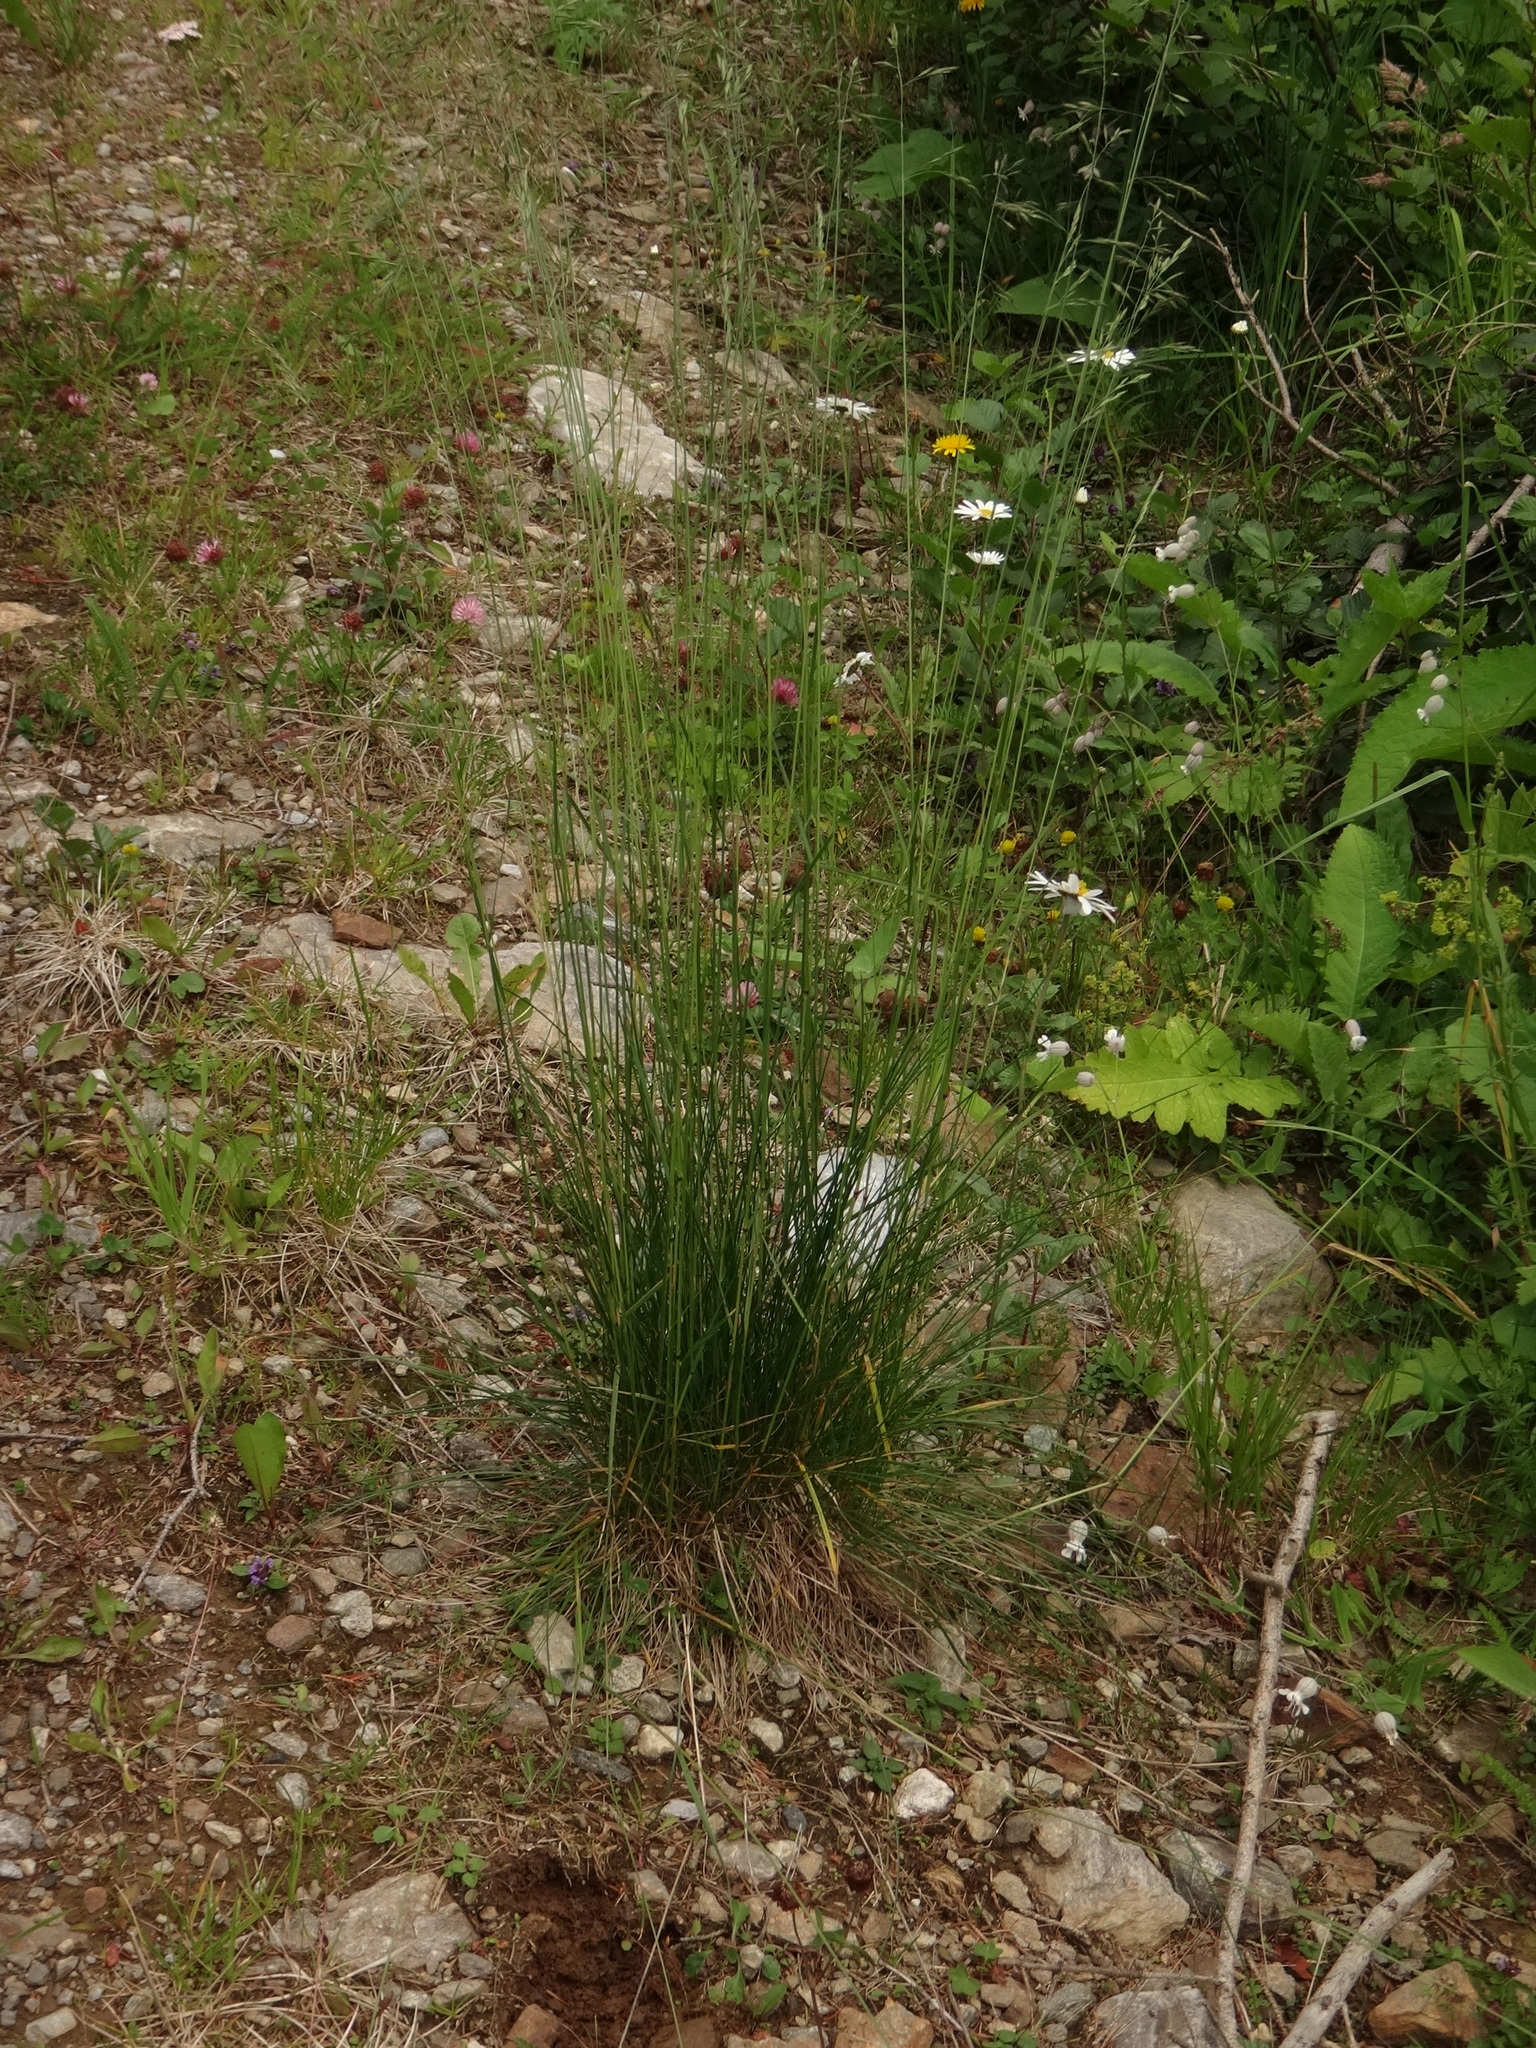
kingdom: Plantae
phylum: Tracheophyta
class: Liliopsida
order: Poales
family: Poaceae
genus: Festuca
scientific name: Festuca nigrescens
